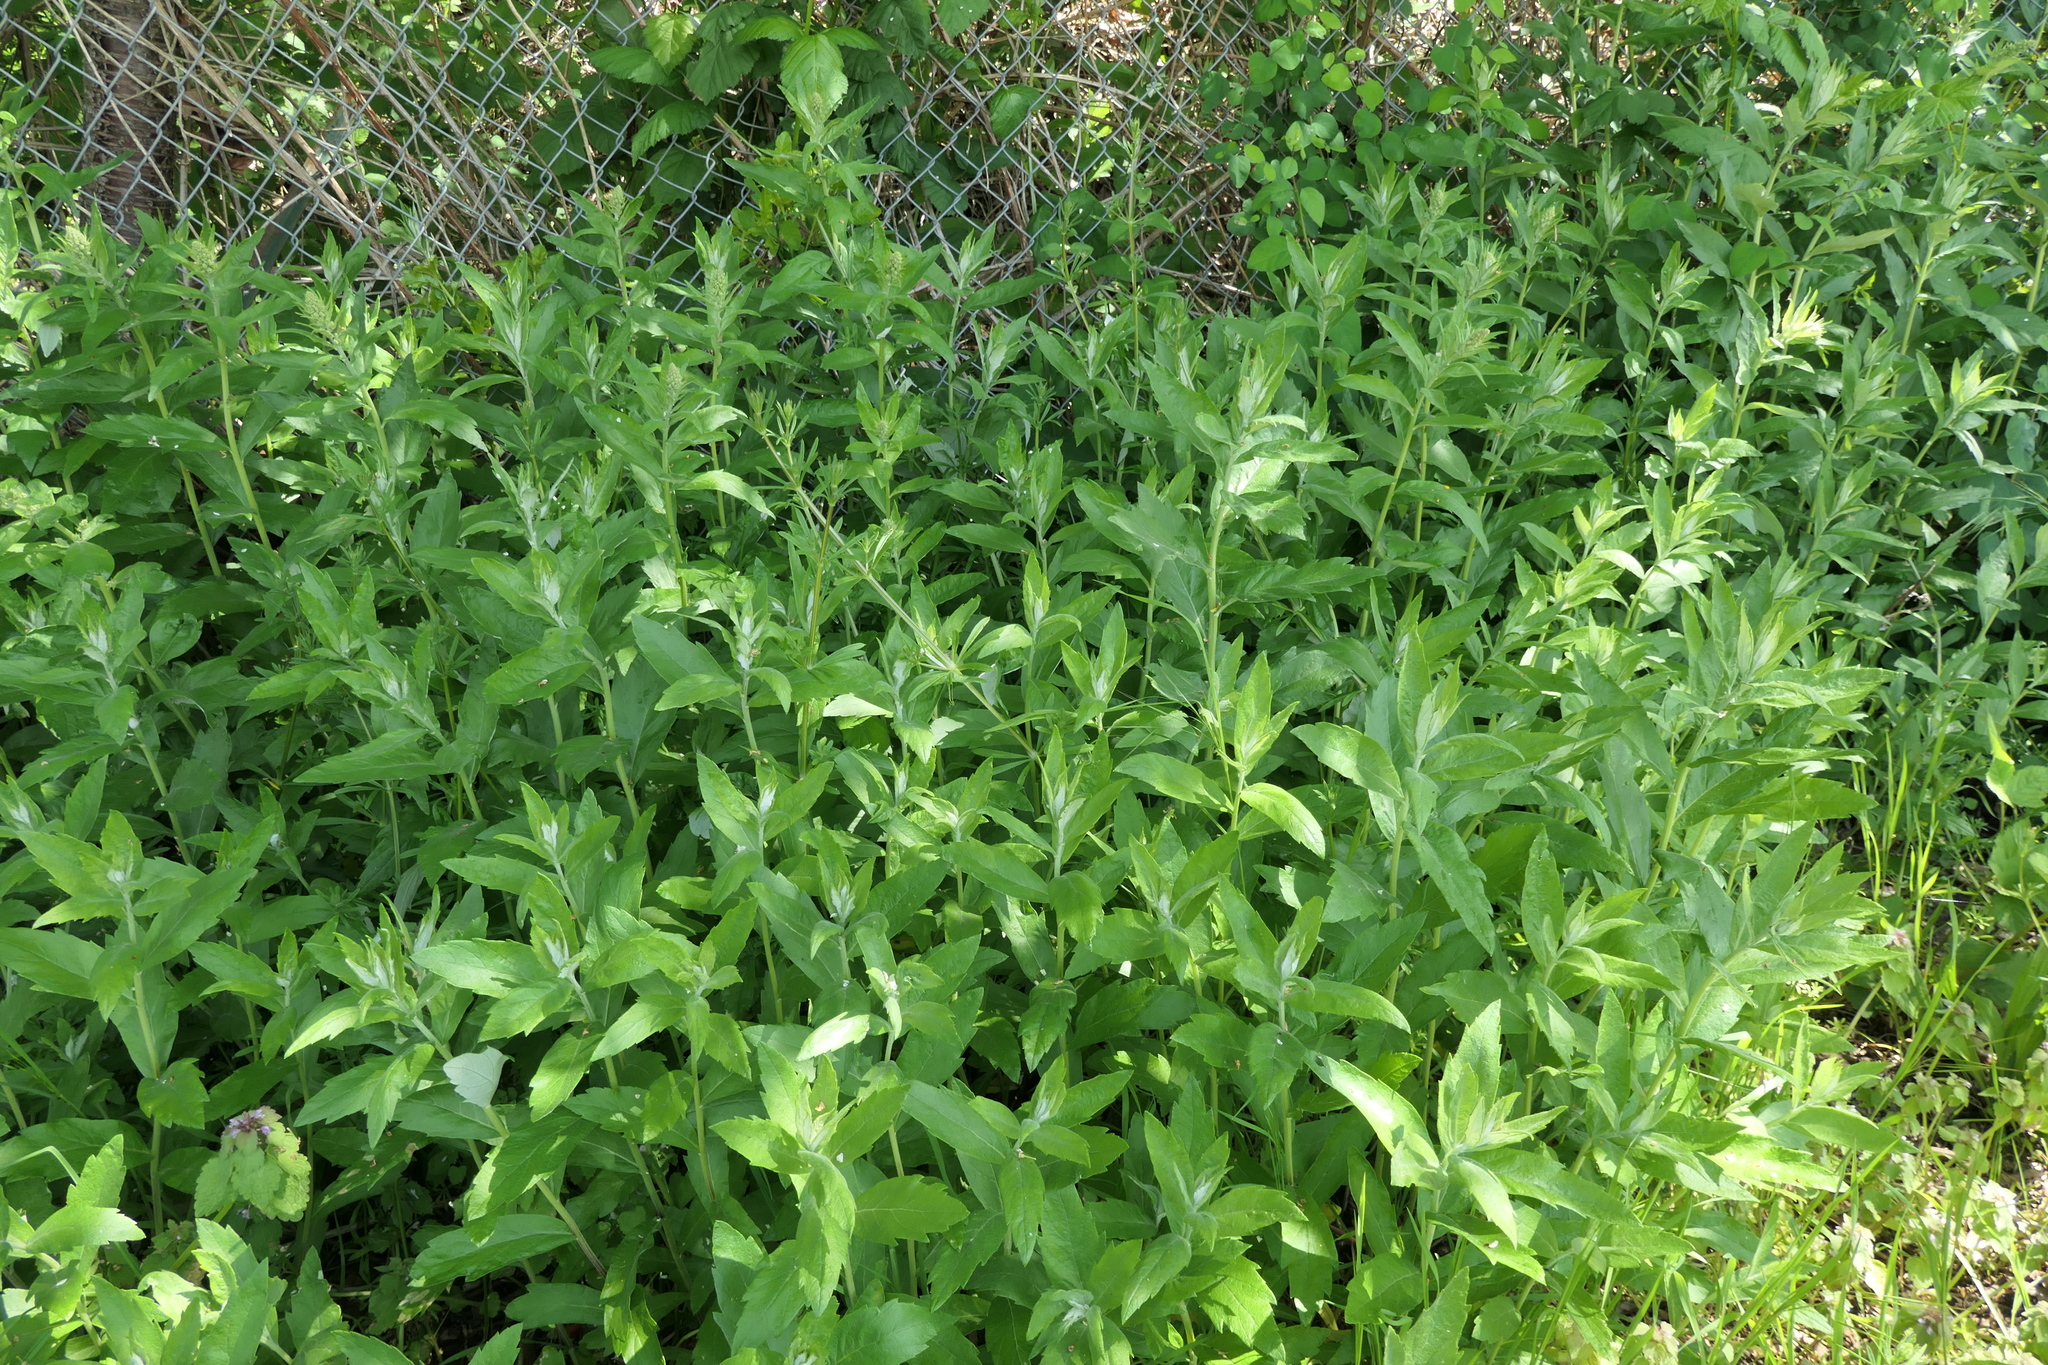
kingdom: Plantae
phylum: Tracheophyta
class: Magnoliopsida
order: Asterales
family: Asteraceae
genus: Artemisia
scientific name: Artemisia suksdorfii
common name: Suksdorf sagewort
